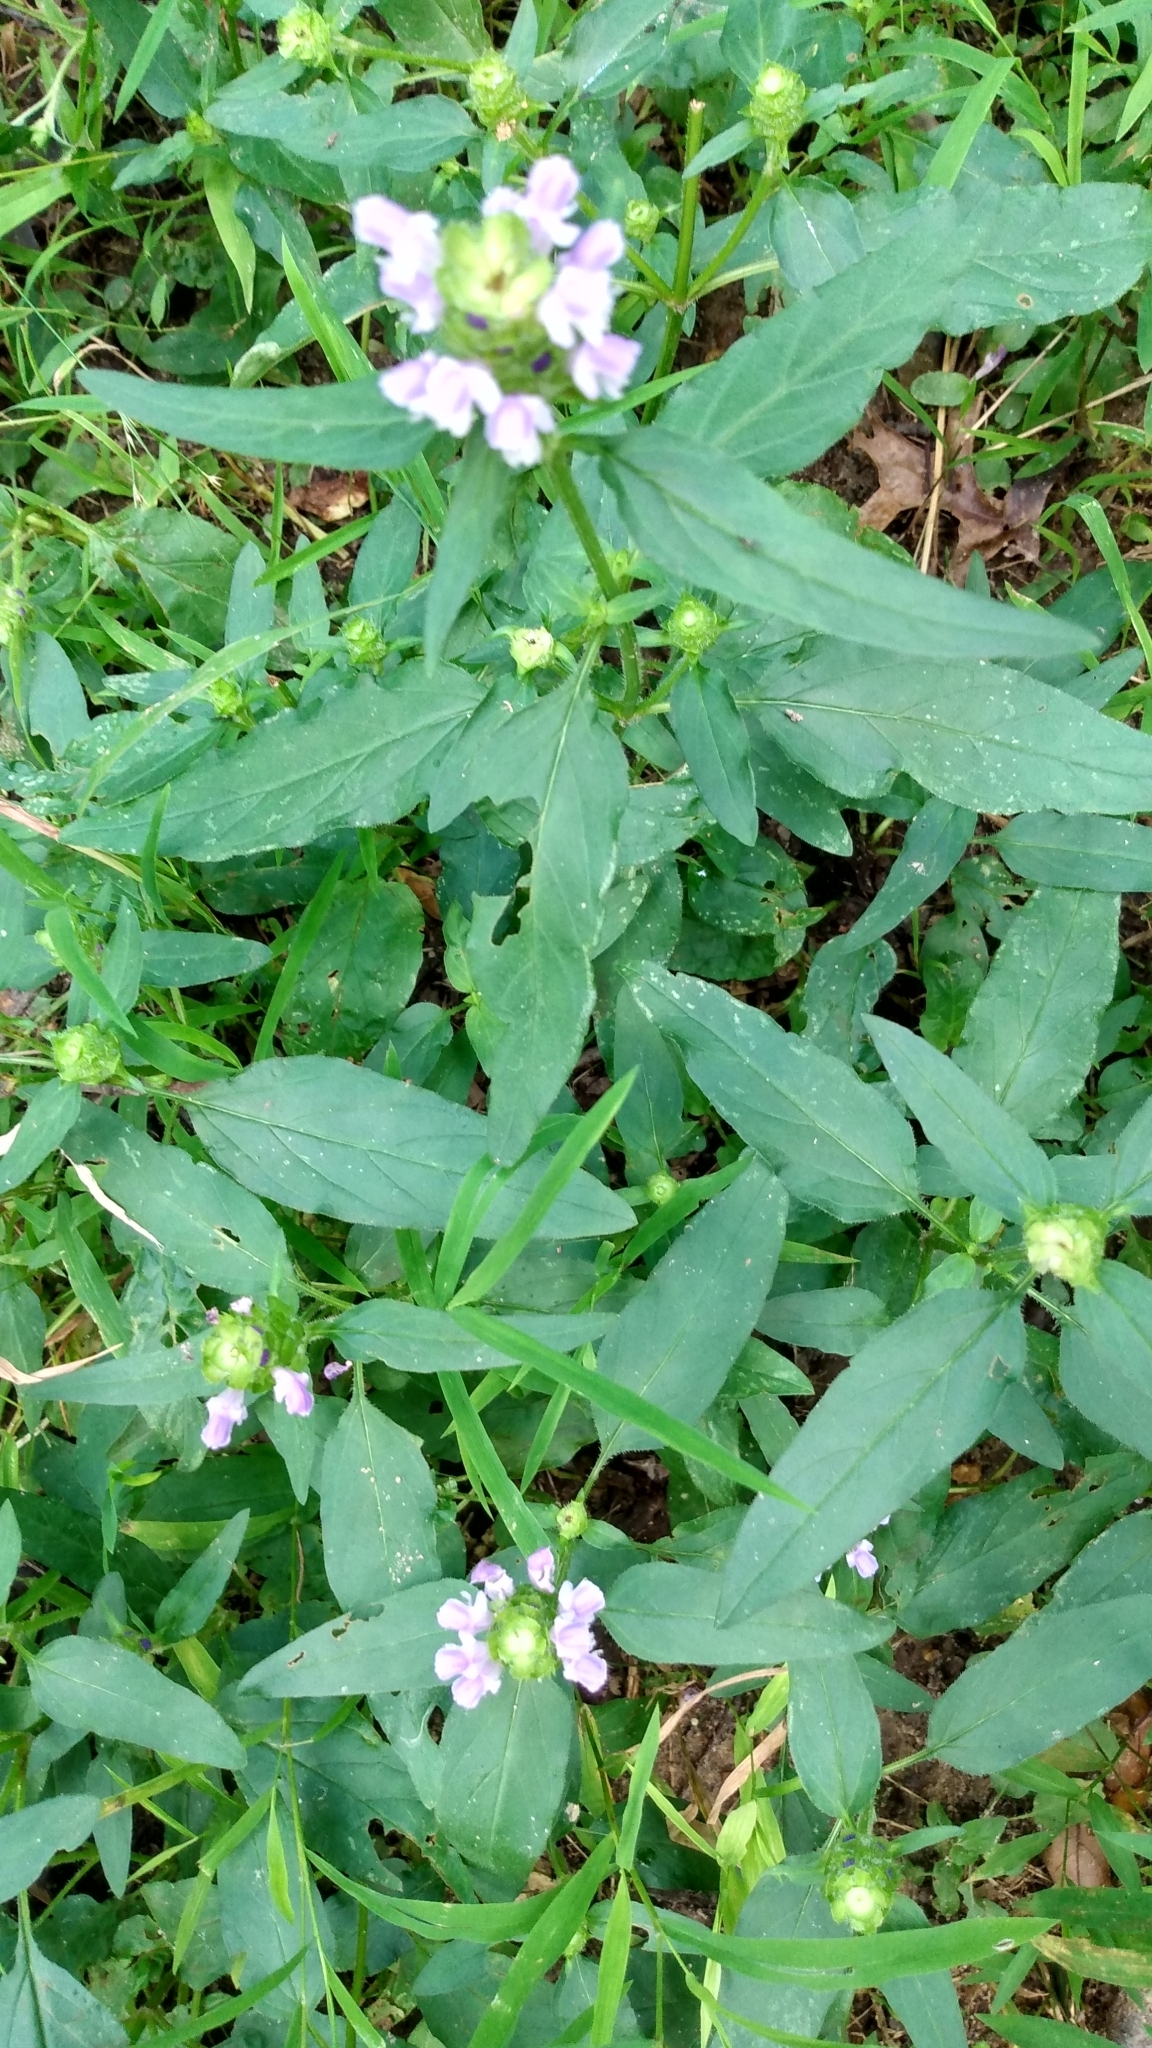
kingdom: Plantae
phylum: Tracheophyta
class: Magnoliopsida
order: Lamiales
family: Lamiaceae
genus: Prunella
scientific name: Prunella vulgaris
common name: Heal-all
